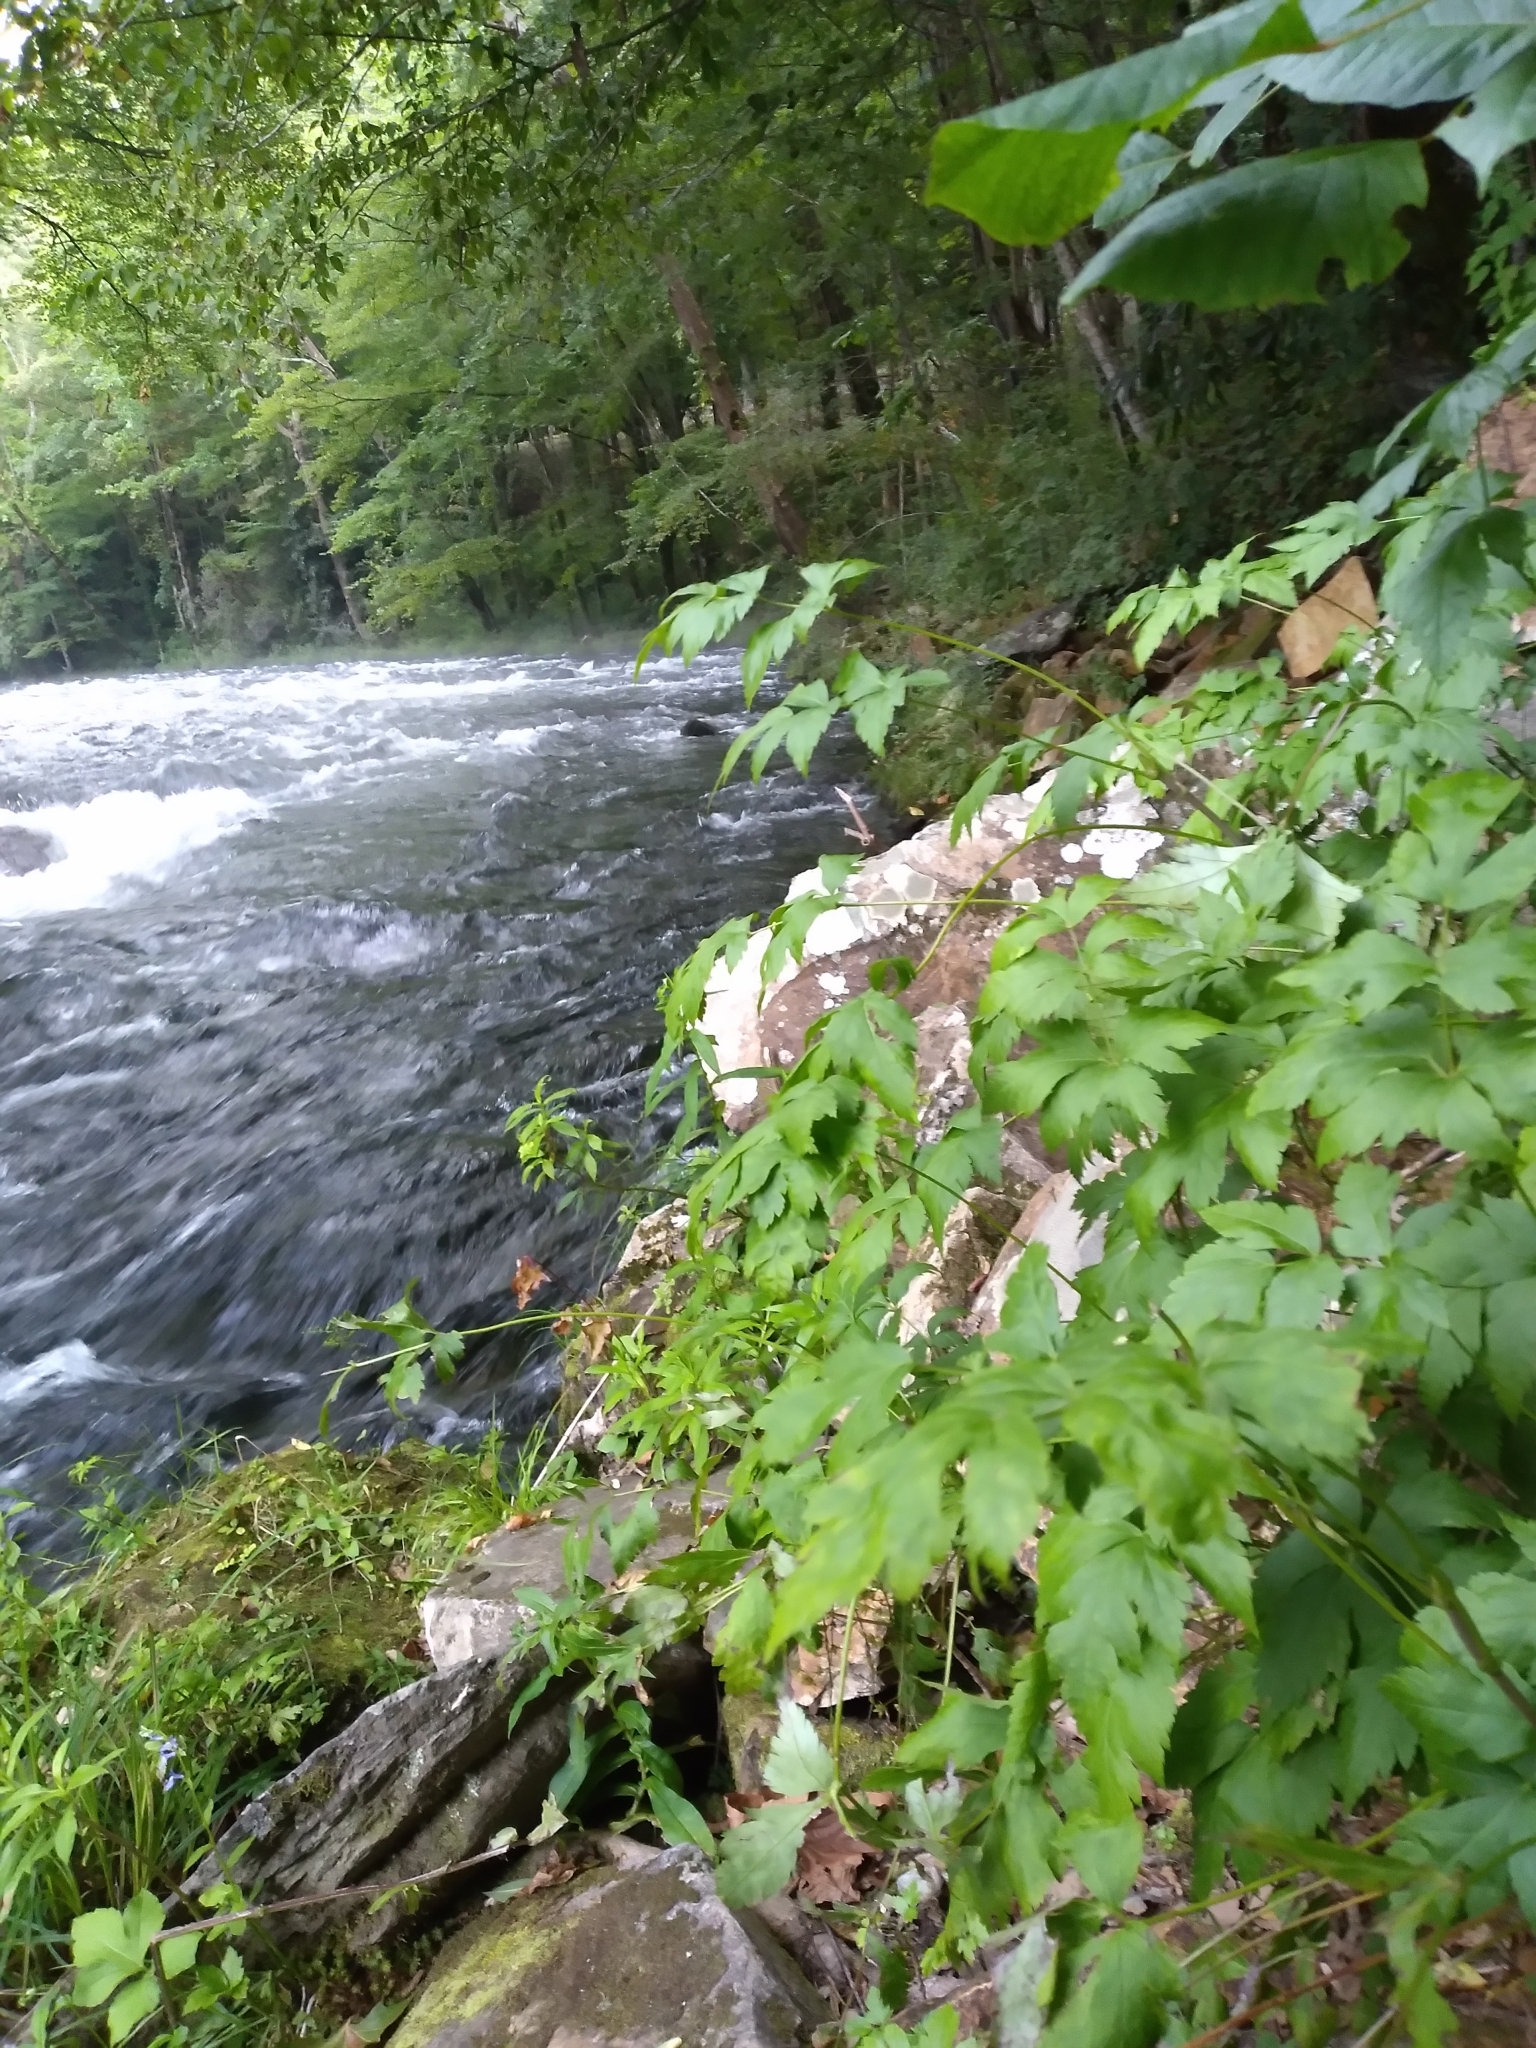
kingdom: Plantae
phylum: Tracheophyta
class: Magnoliopsida
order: Ranunculales
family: Ranunculaceae
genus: Xanthorhiza
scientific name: Xanthorhiza simplicissima
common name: Yellowroot
